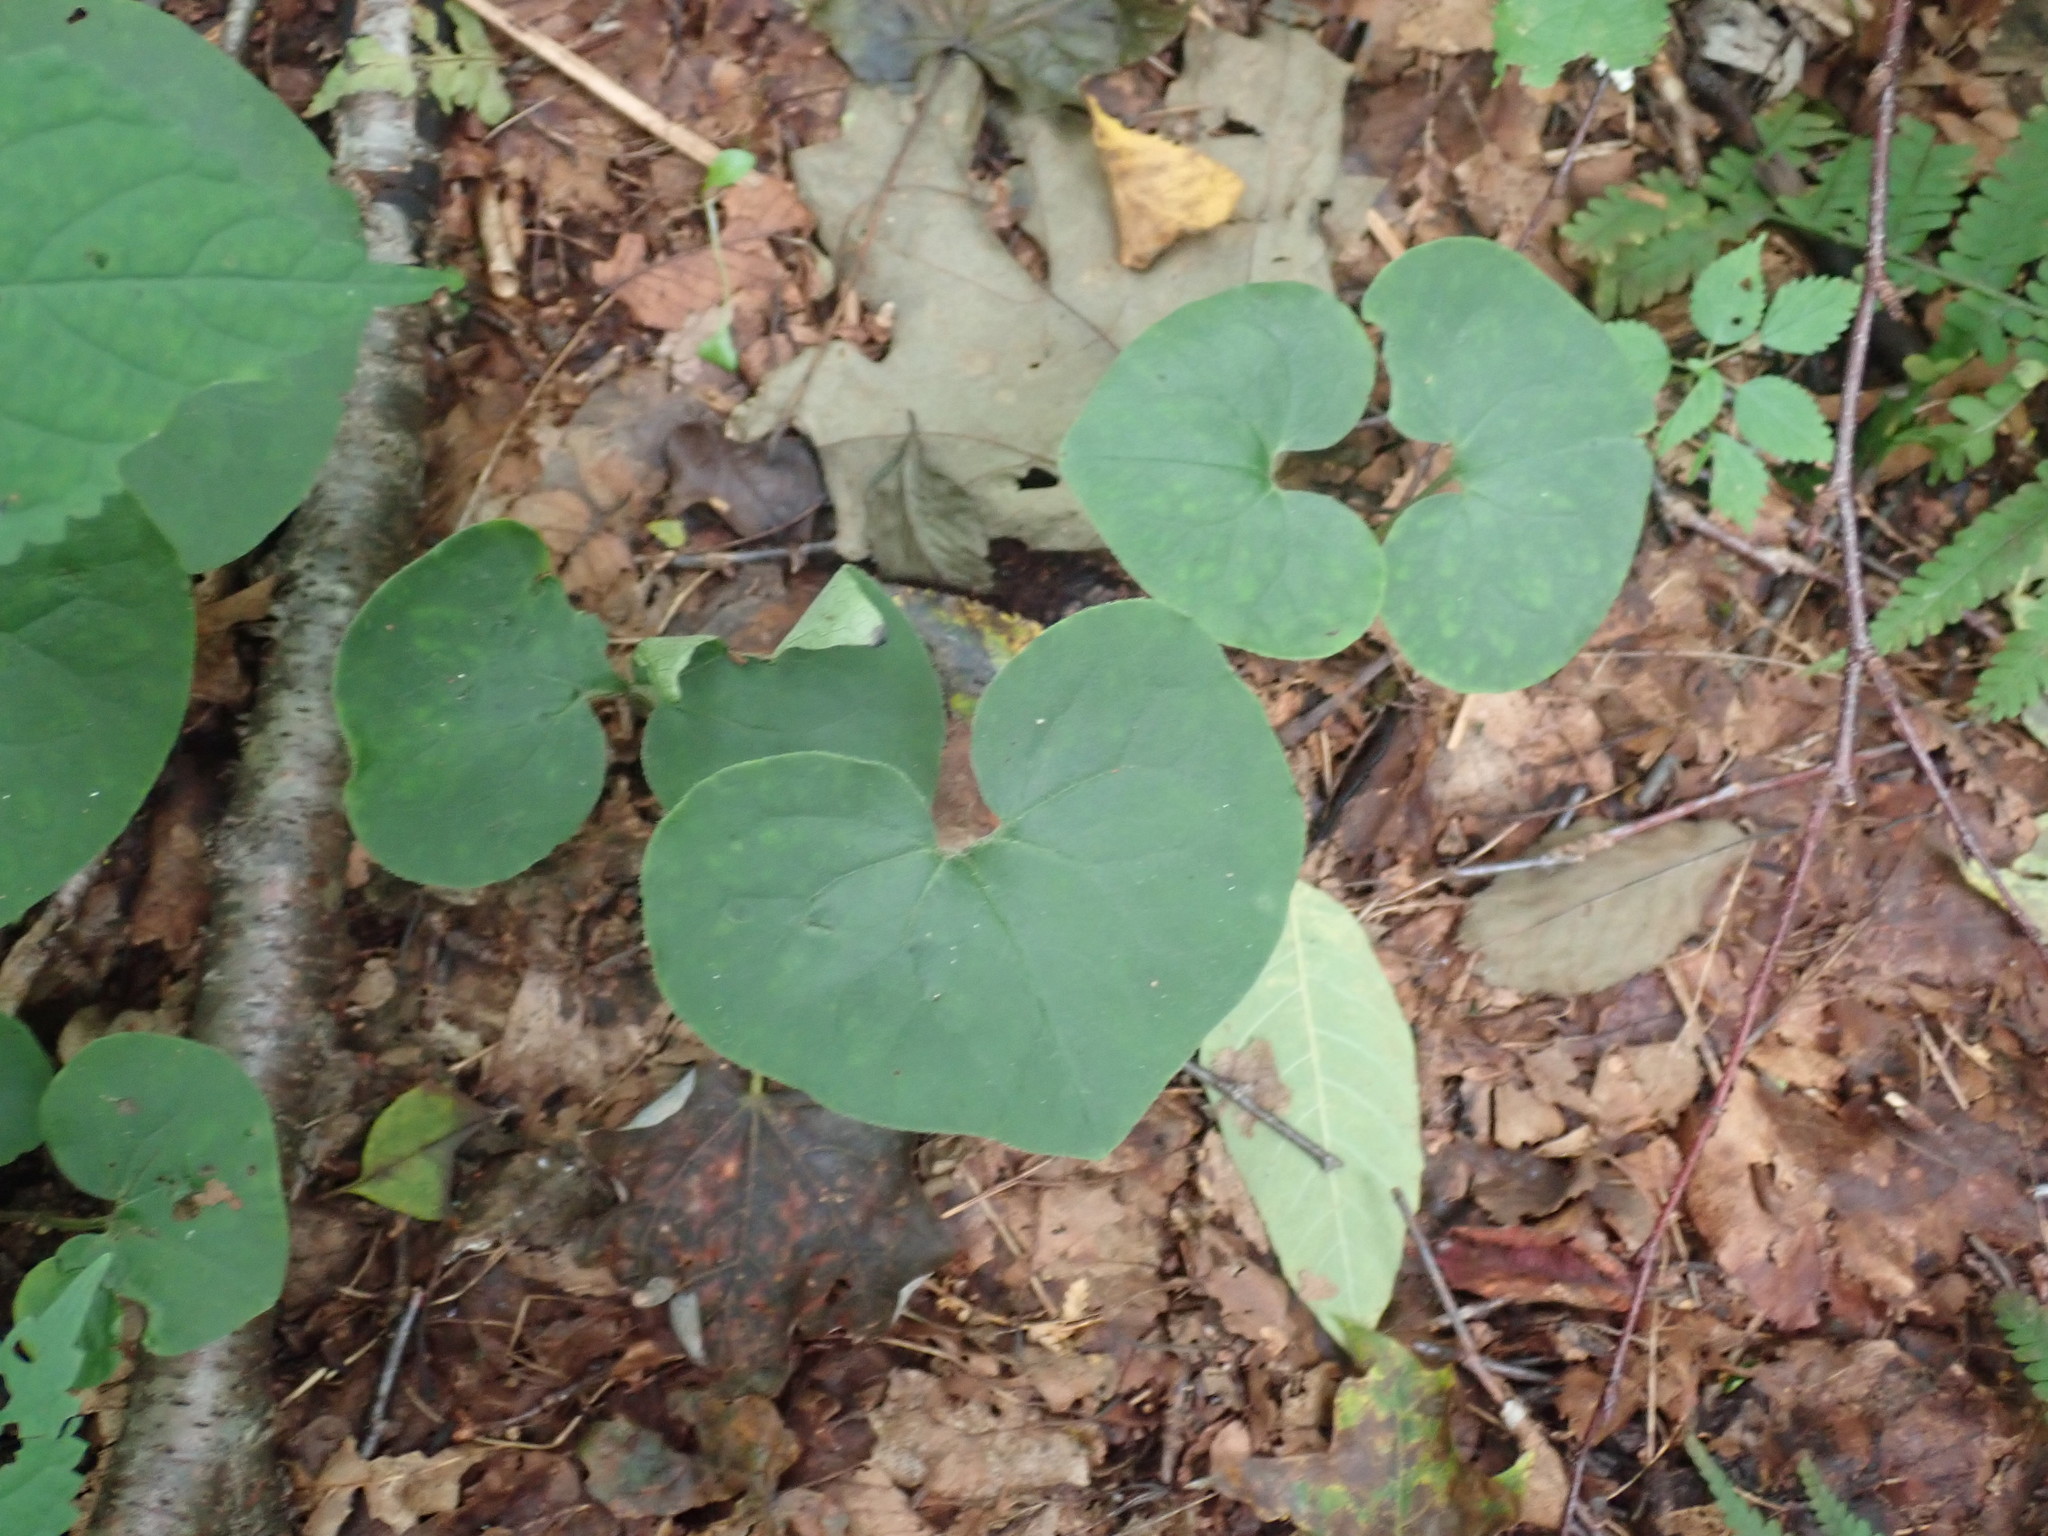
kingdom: Plantae
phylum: Tracheophyta
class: Magnoliopsida
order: Piperales
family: Aristolochiaceae
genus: Asarum
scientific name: Asarum canadense
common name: Wild ginger
